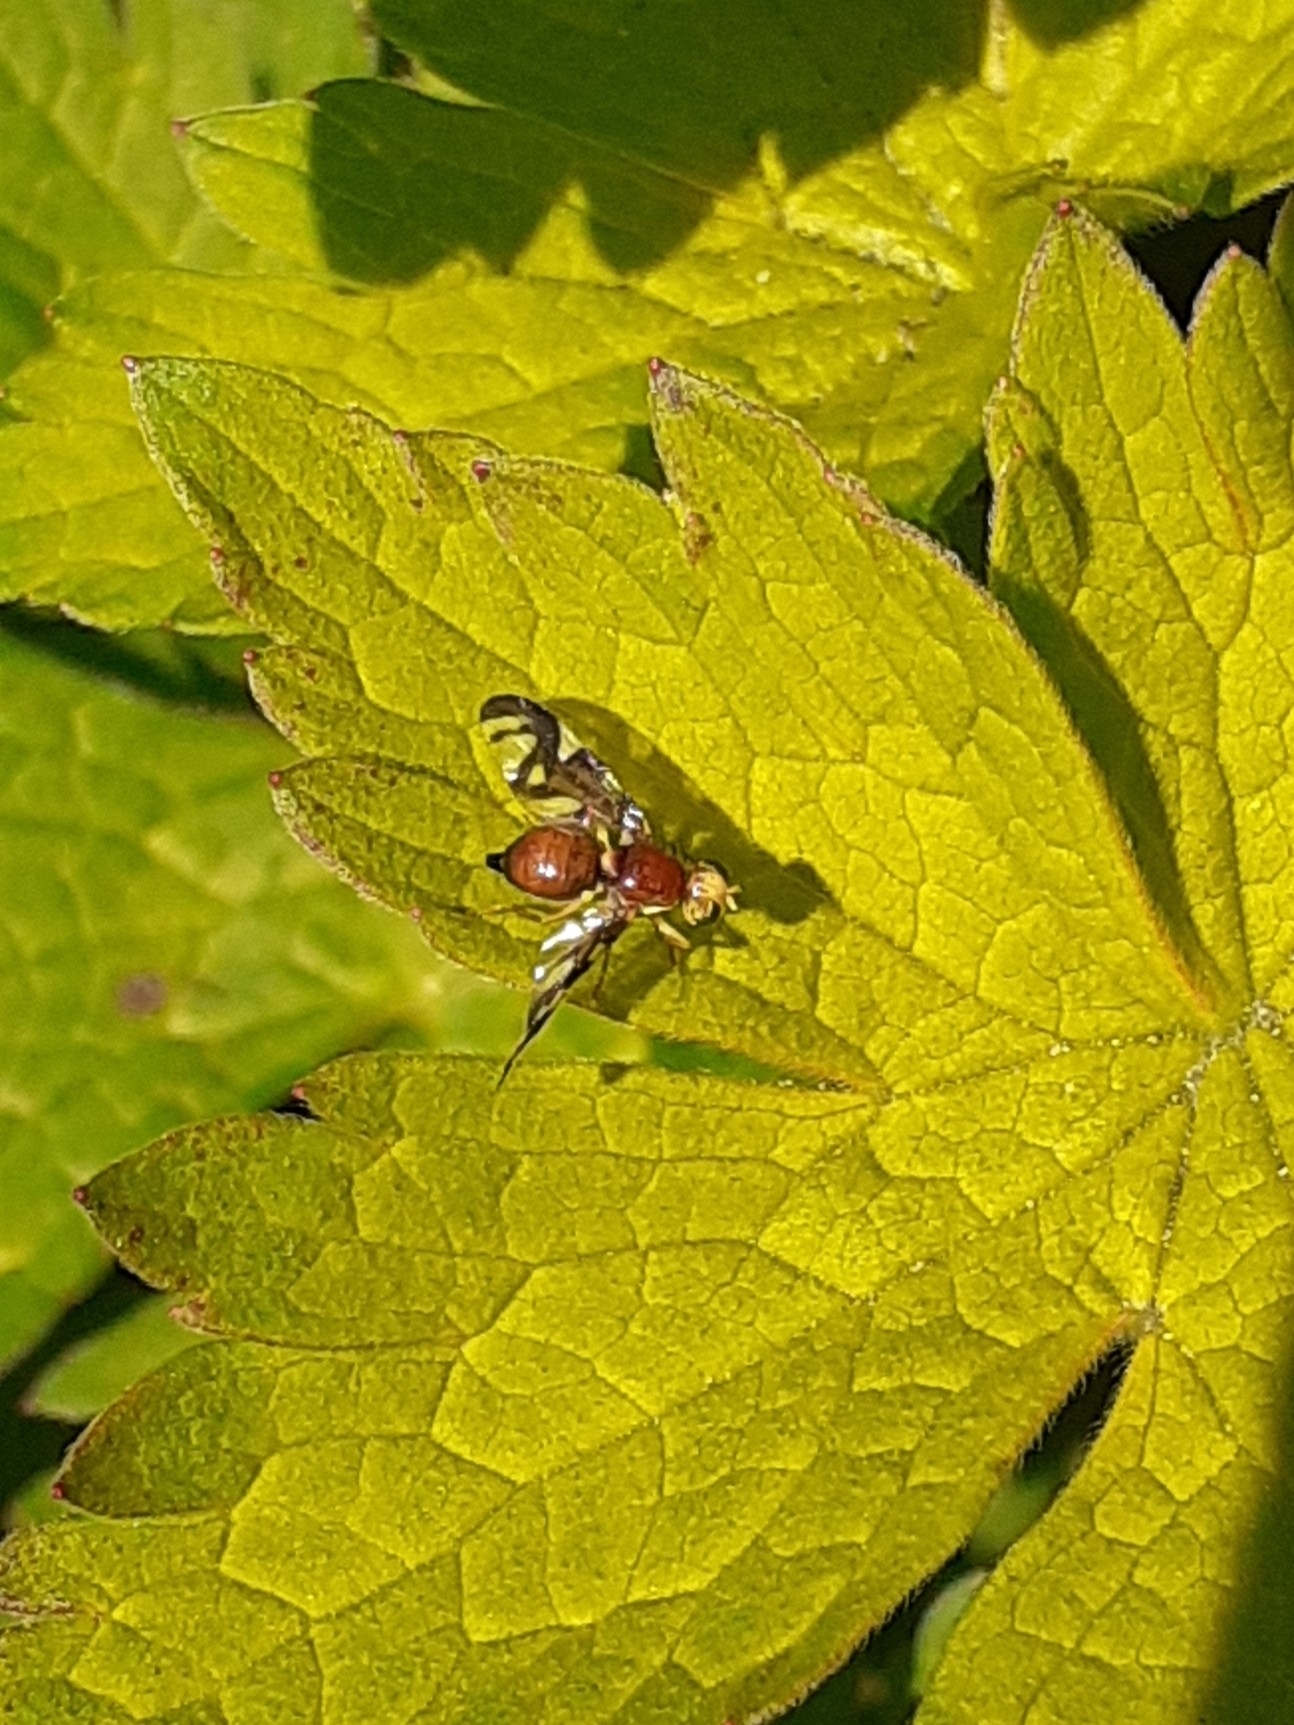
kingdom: Animalia
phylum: Arthropoda
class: Insecta
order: Diptera
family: Tephritidae
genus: Euleia
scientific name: Euleia heraclei
